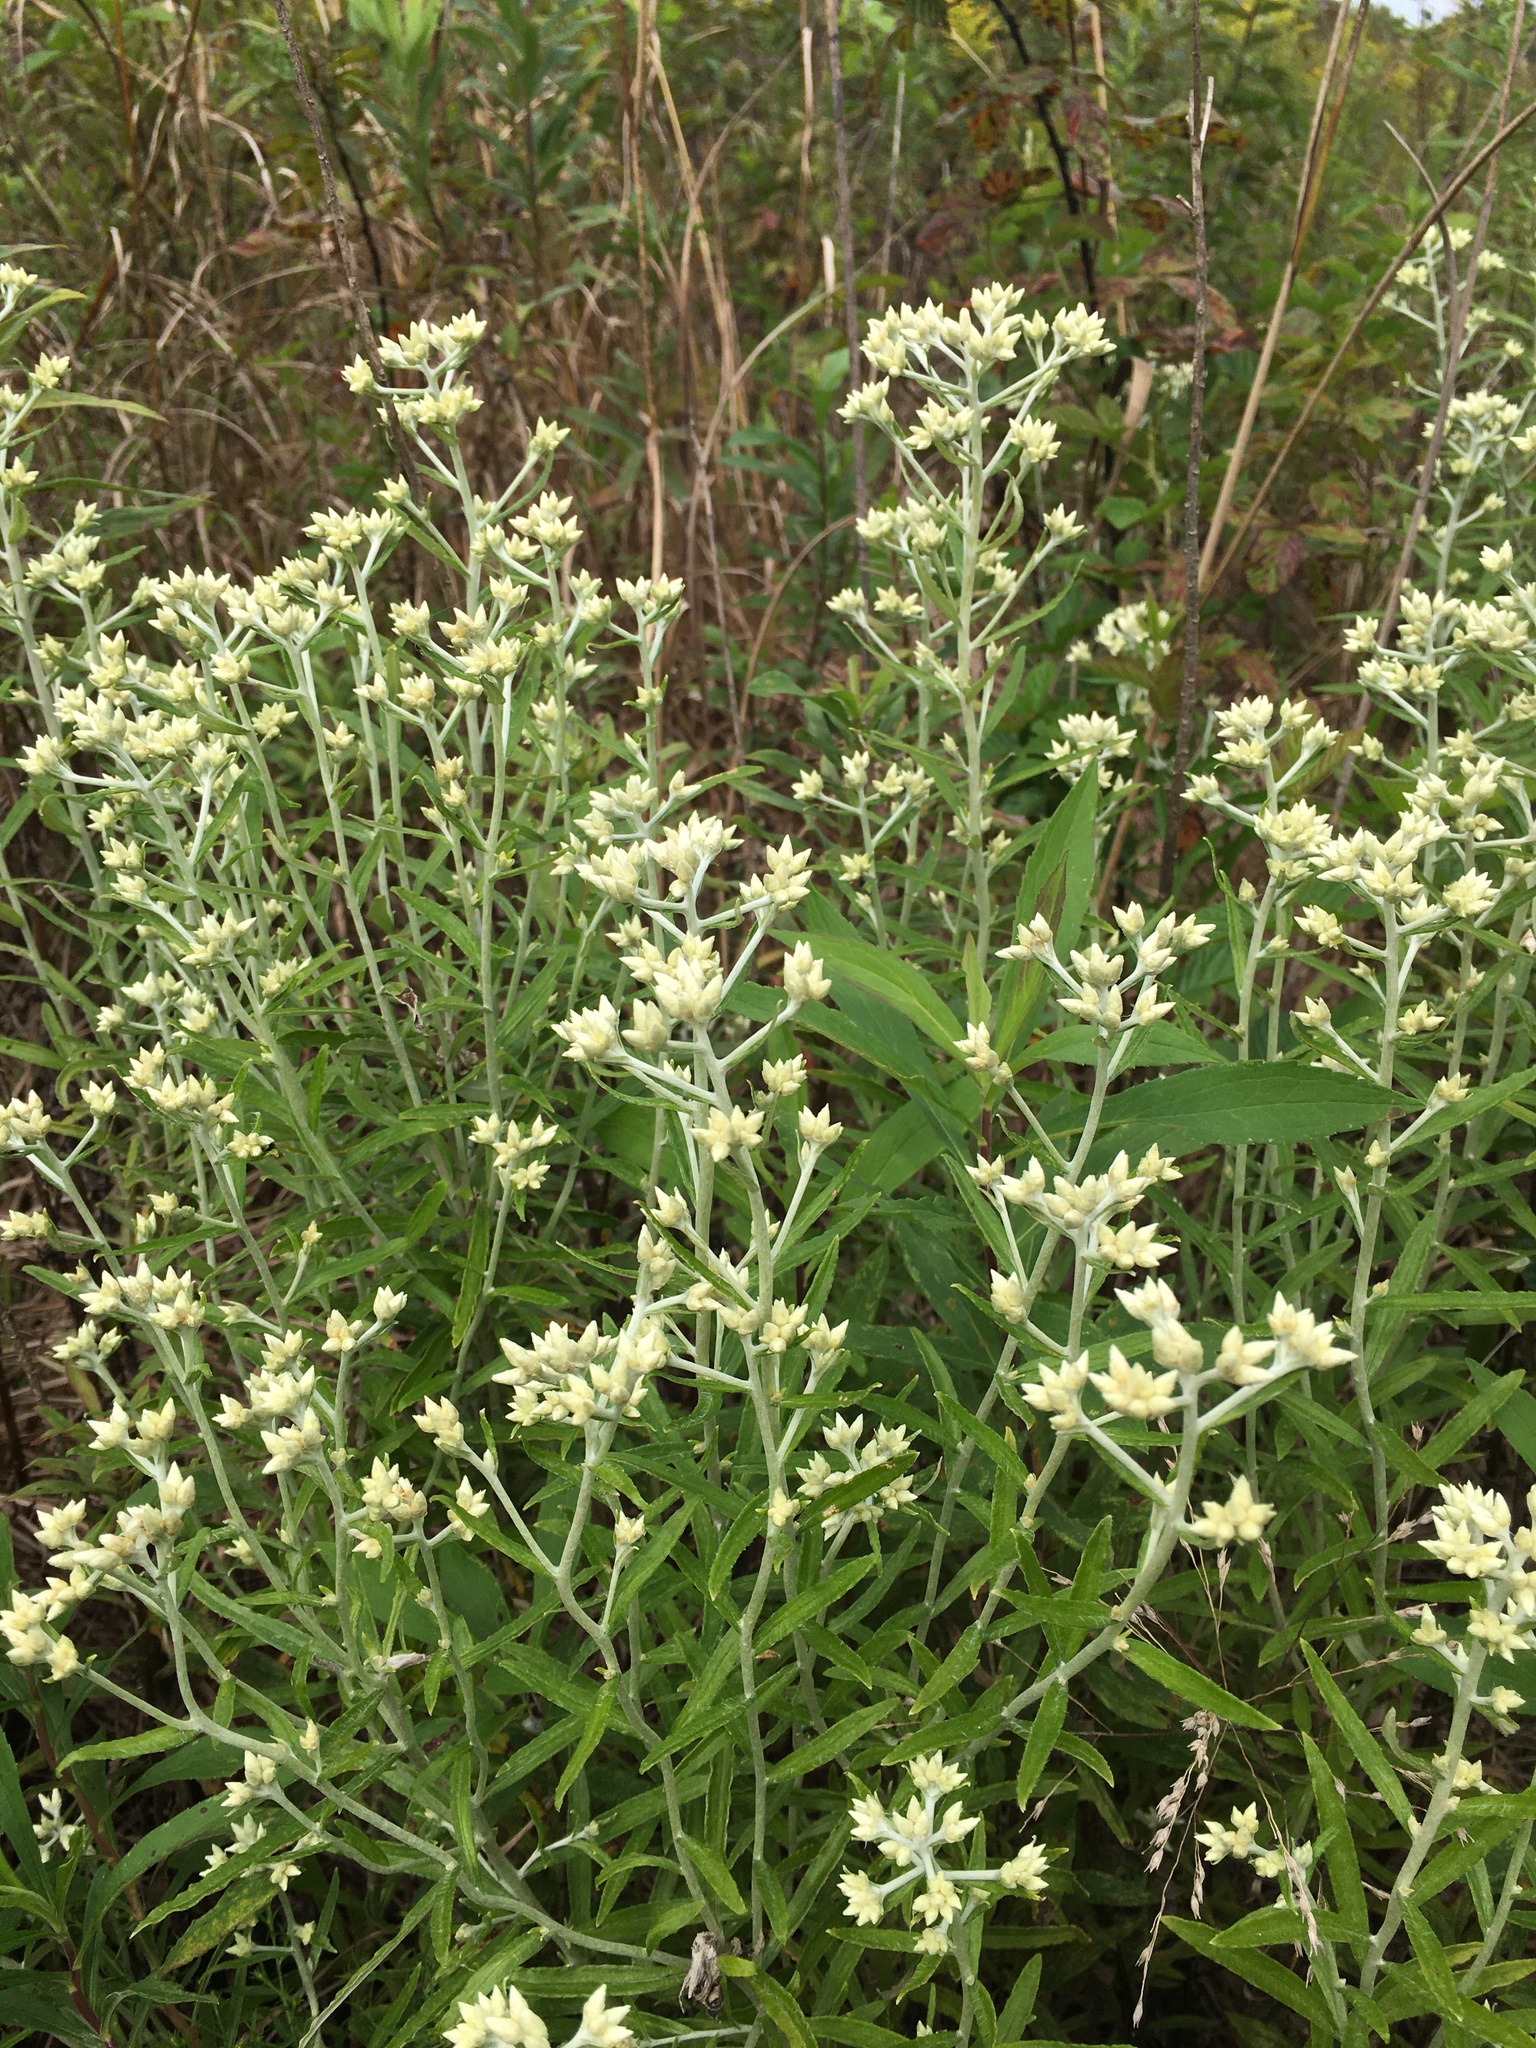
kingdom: Plantae
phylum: Tracheophyta
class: Magnoliopsida
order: Asterales
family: Asteraceae
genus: Pseudognaphalium
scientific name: Pseudognaphalium obtusifolium
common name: Eastern rabbit-tobacco
